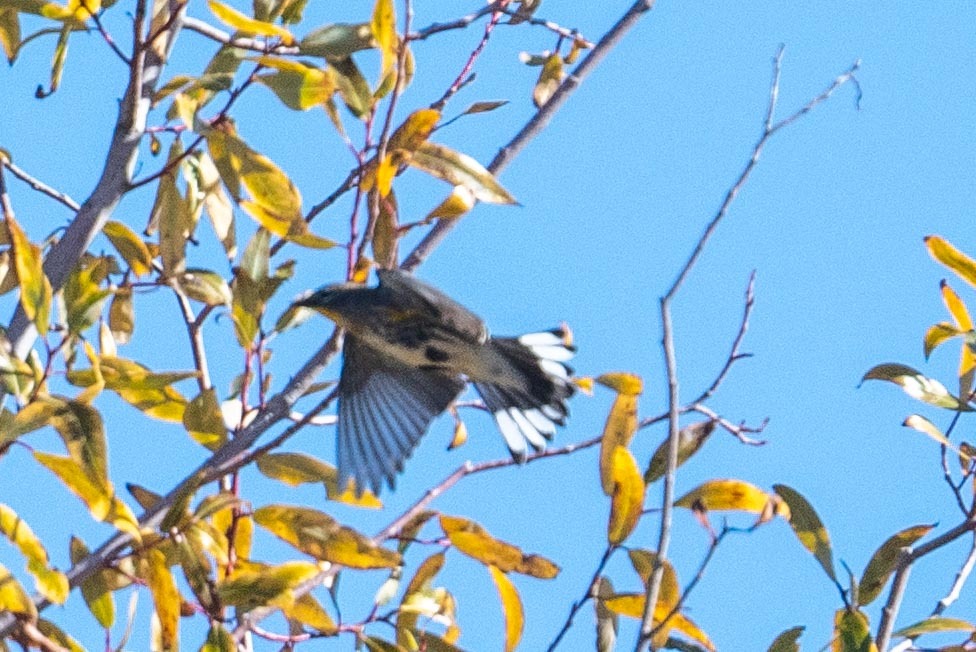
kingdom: Animalia
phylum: Chordata
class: Aves
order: Passeriformes
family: Parulidae
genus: Setophaga
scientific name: Setophaga coronata
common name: Myrtle warbler
